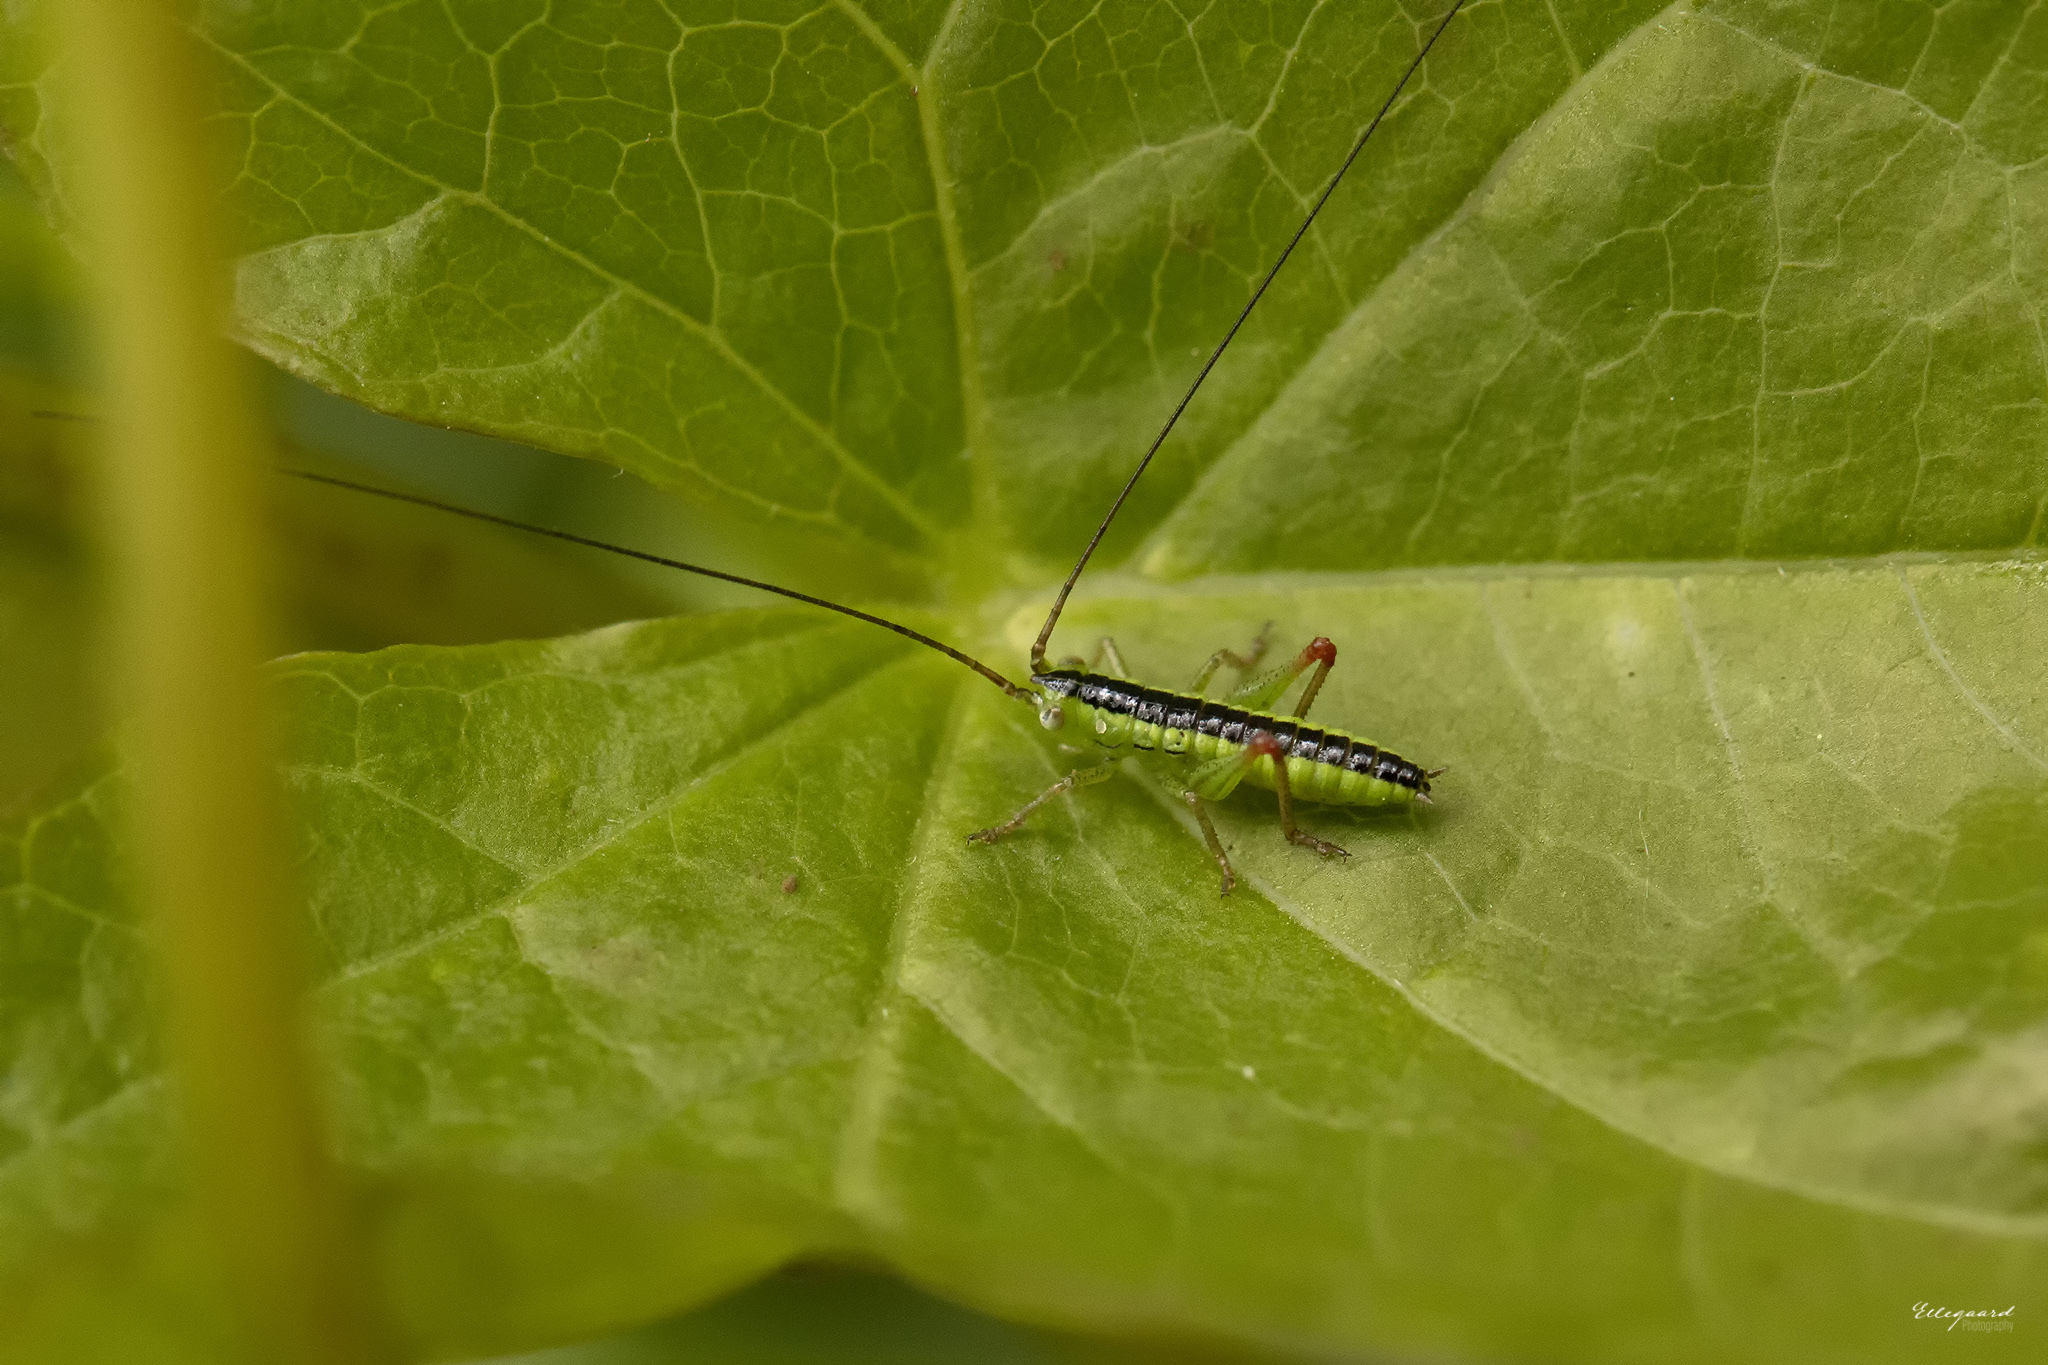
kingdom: Animalia
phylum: Arthropoda
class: Insecta
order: Orthoptera
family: Tettigoniidae
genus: Conocephalus
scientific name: Conocephalus dorsalis
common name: Short-winged conehead
